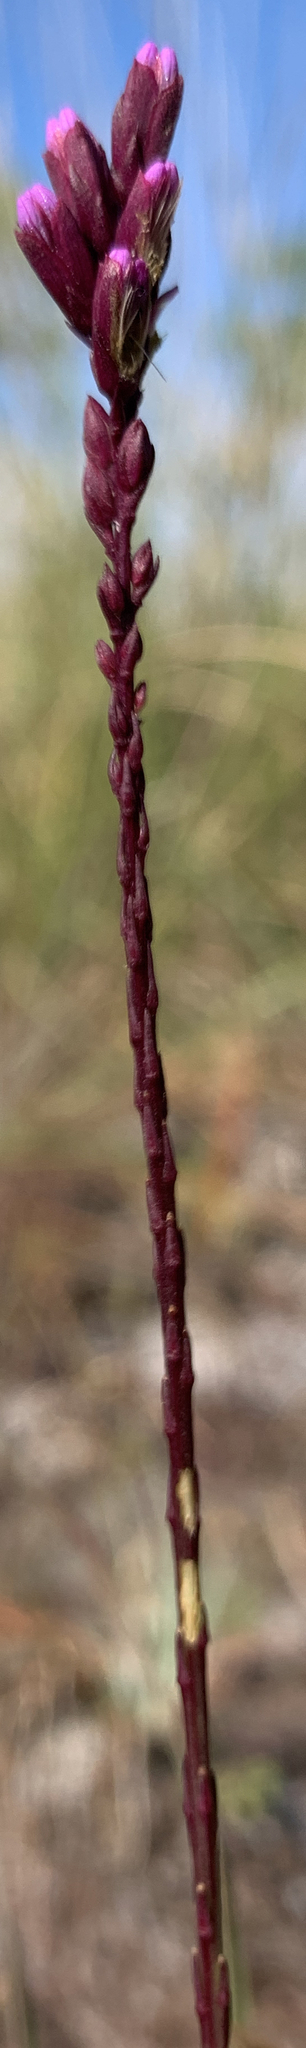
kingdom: Plantae
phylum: Tracheophyta
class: Magnoliopsida
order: Asterales
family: Asteraceae
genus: Liatris
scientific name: Liatris quadriflora
